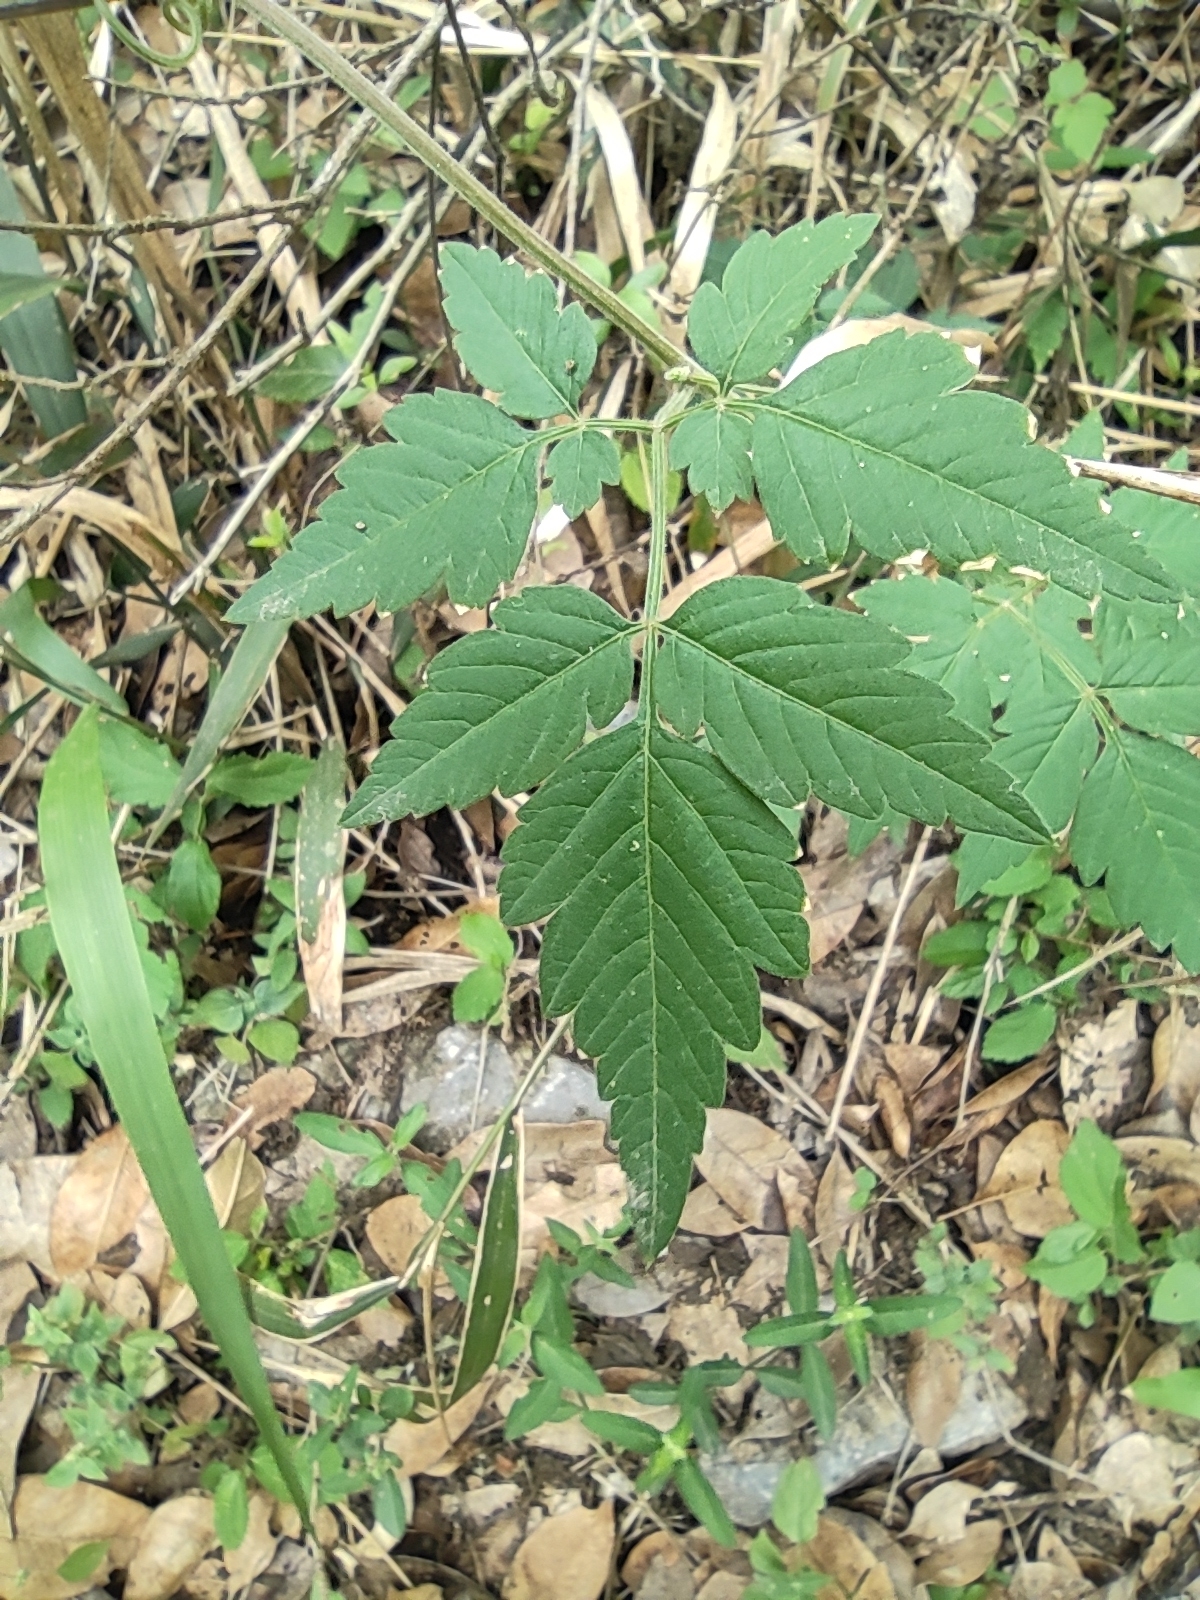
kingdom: Plantae
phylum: Tracheophyta
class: Magnoliopsida
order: Sapindales
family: Sapindaceae
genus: Cardiospermum
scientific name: Cardiospermum halicacabum
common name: Balloon vine
